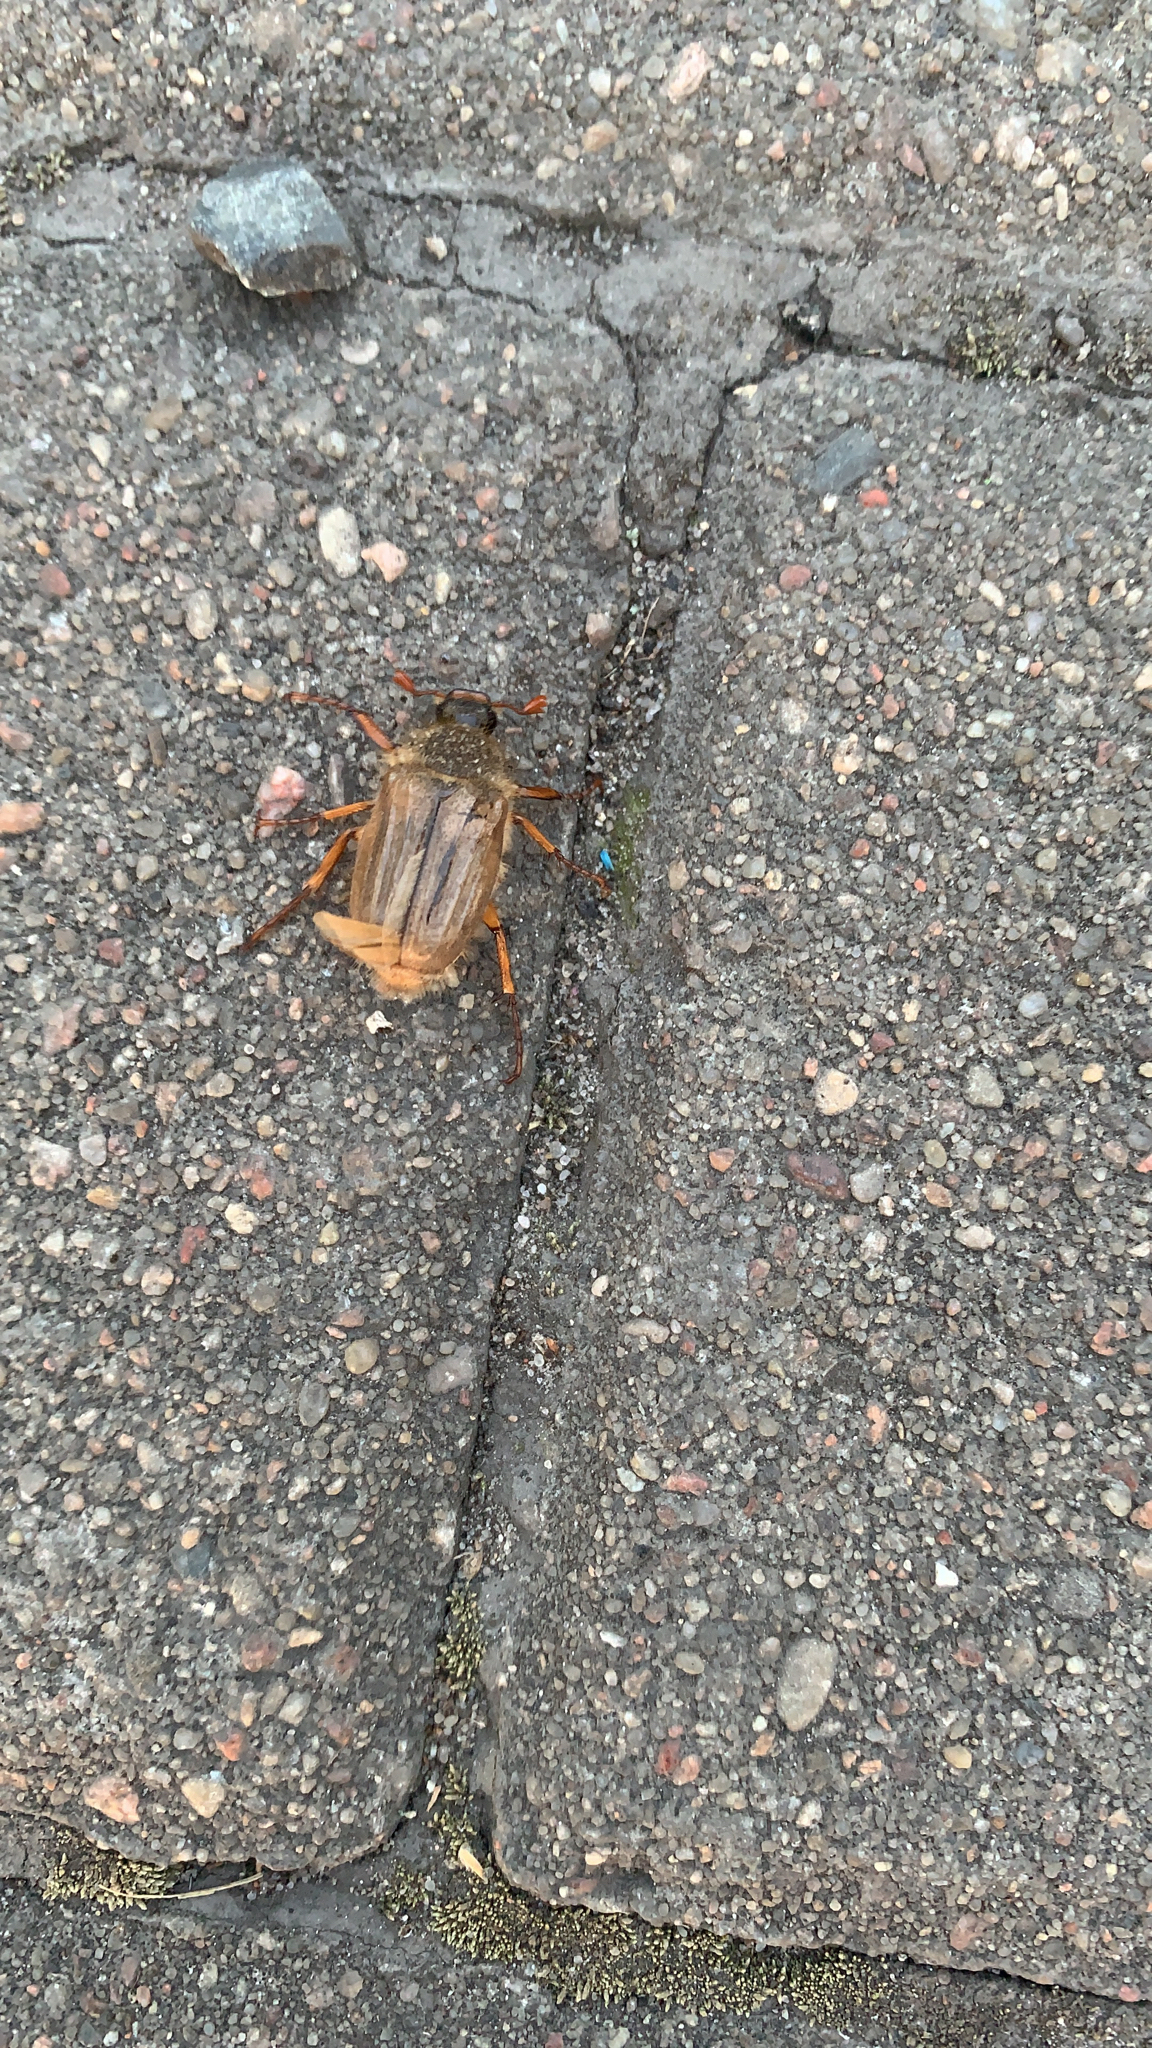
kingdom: Animalia
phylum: Arthropoda
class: Insecta
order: Coleoptera
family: Scarabaeidae
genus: Amphimallon
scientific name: Amphimallon solstitiale
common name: Summer chafer
